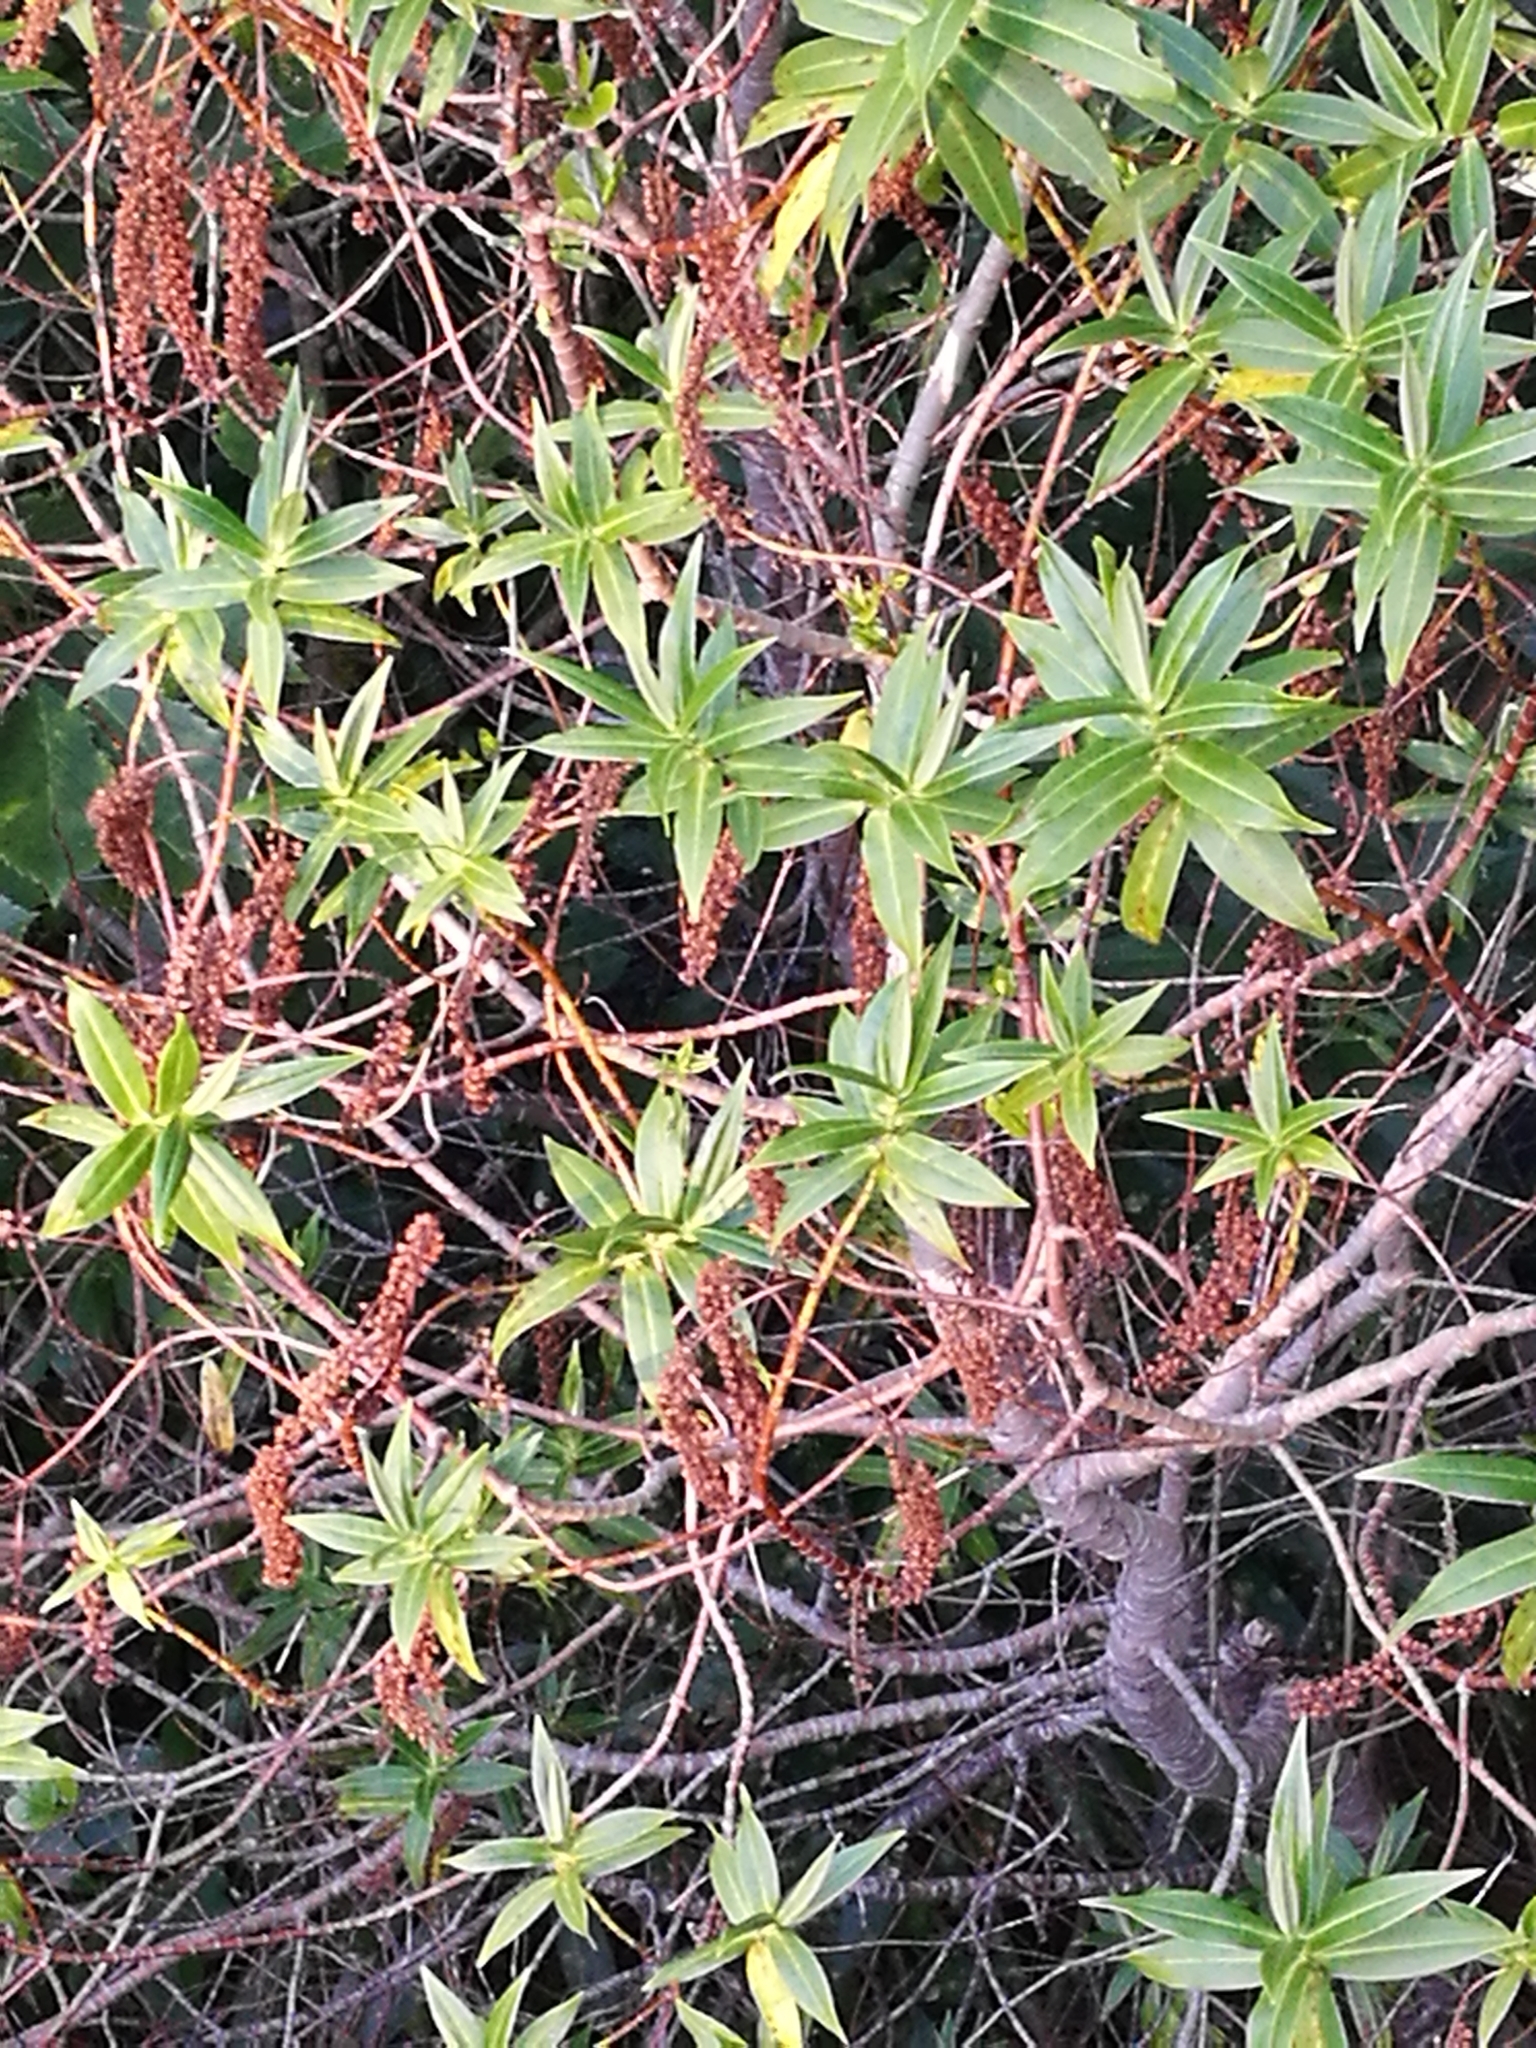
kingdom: Plantae
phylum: Tracheophyta
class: Magnoliopsida
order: Lamiales
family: Plantaginaceae
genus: Veronica
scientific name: Veronica salicifolia
